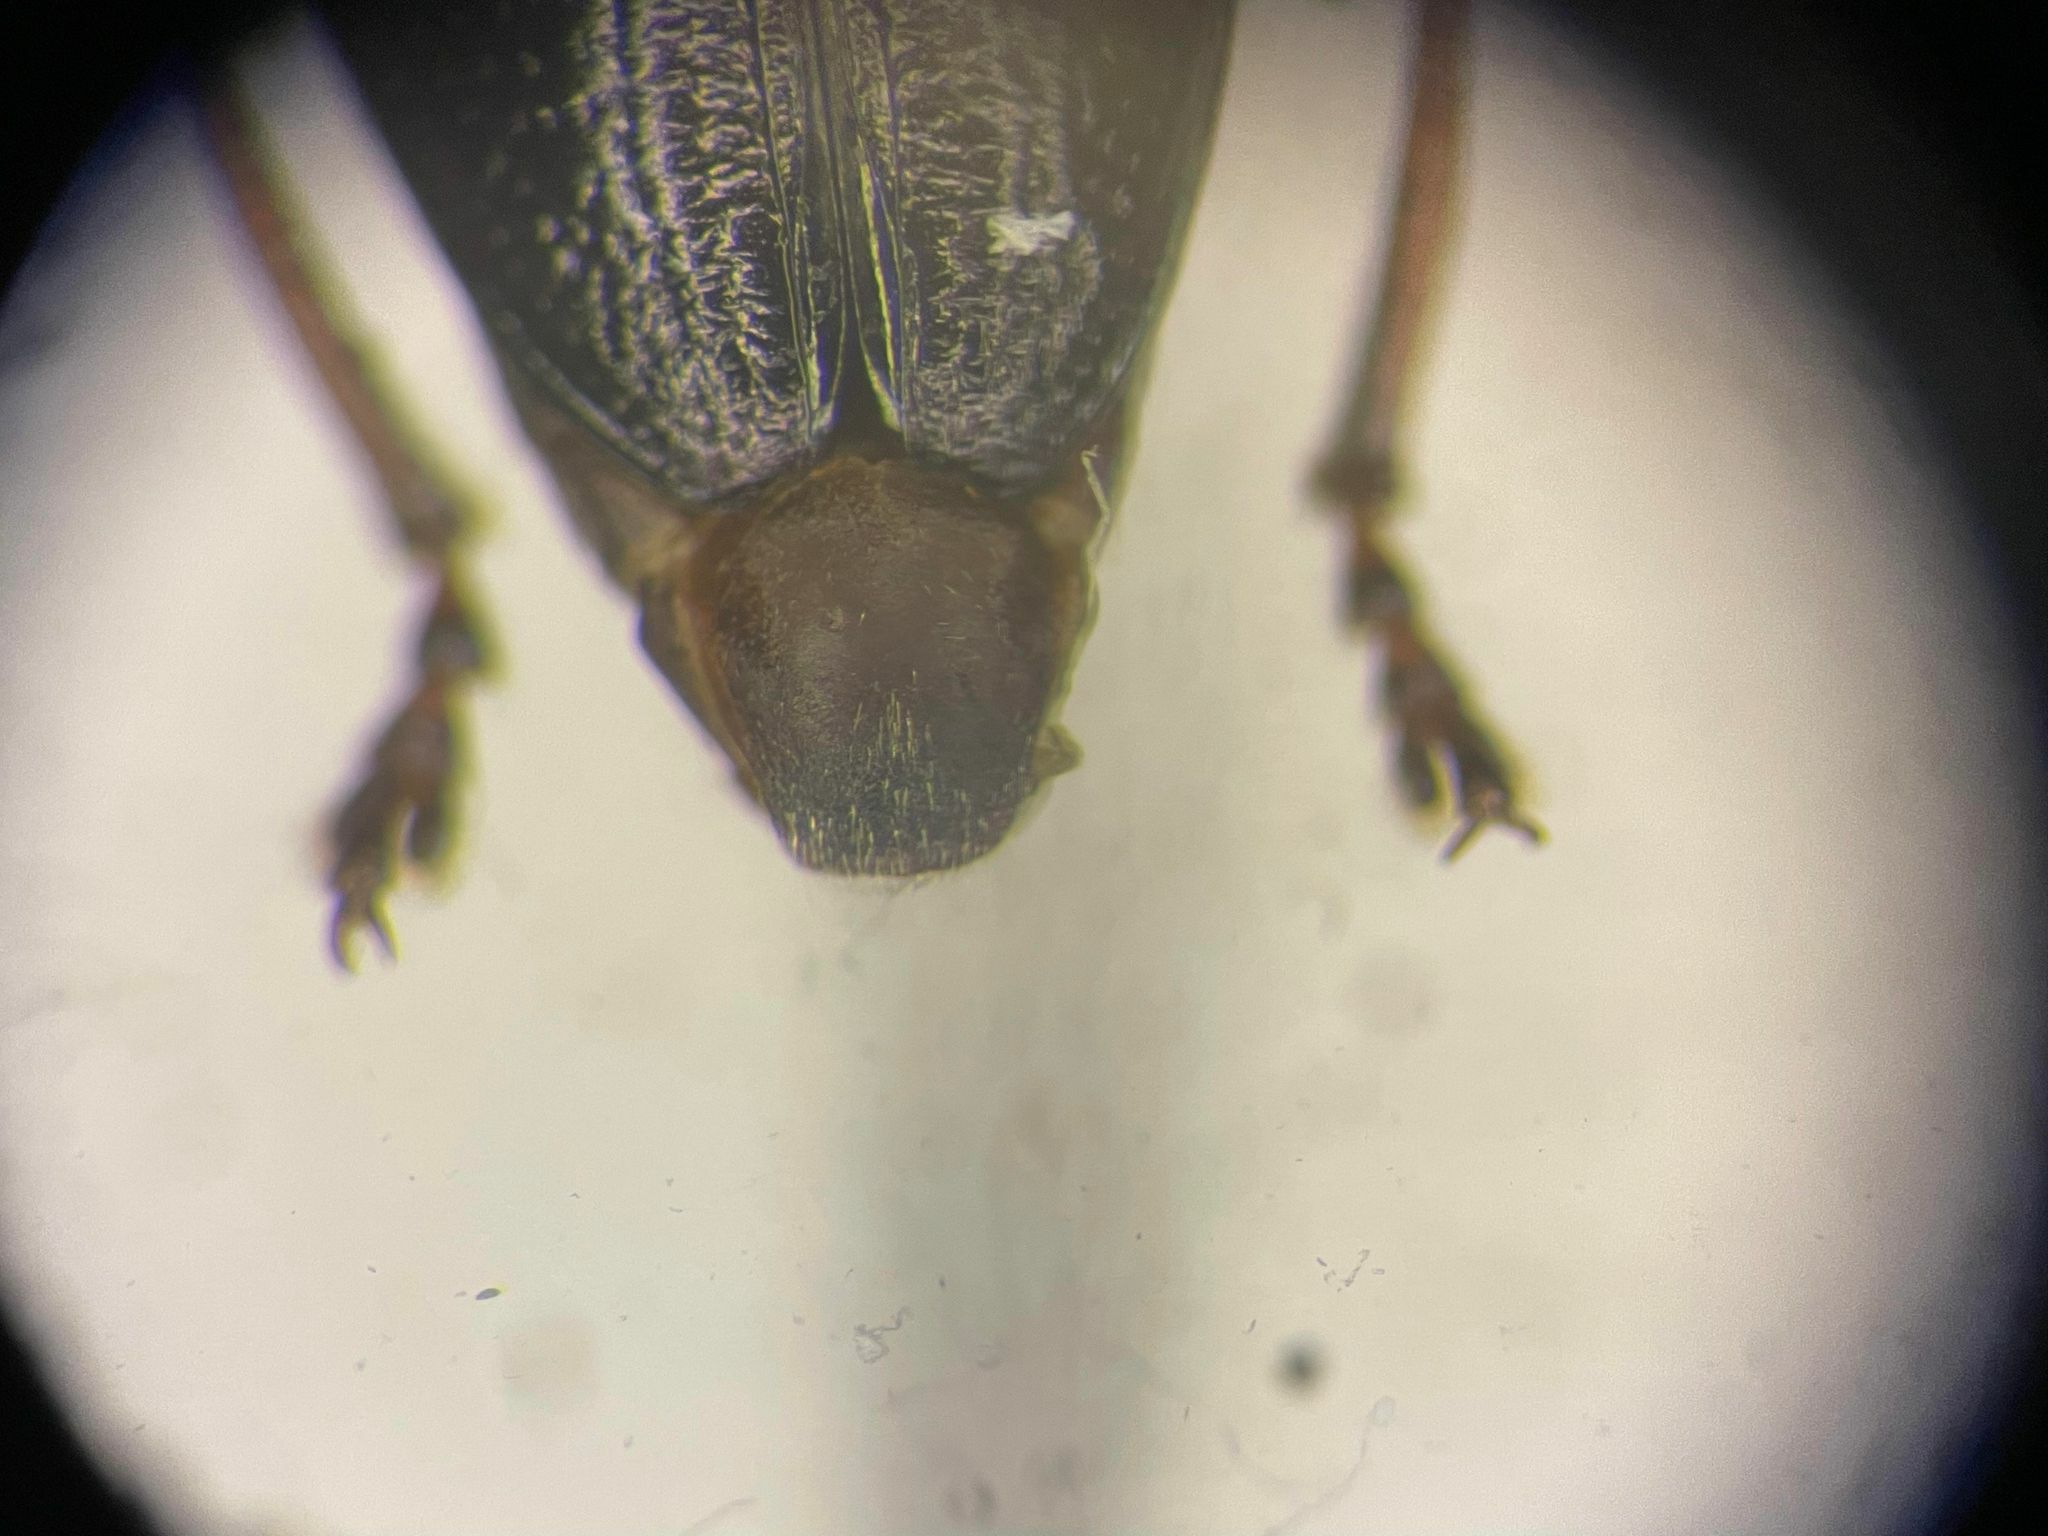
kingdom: Animalia
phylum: Arthropoda
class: Insecta
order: Coleoptera
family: Chrysomelidae
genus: Plateumaris
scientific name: Plateumaris metallica
